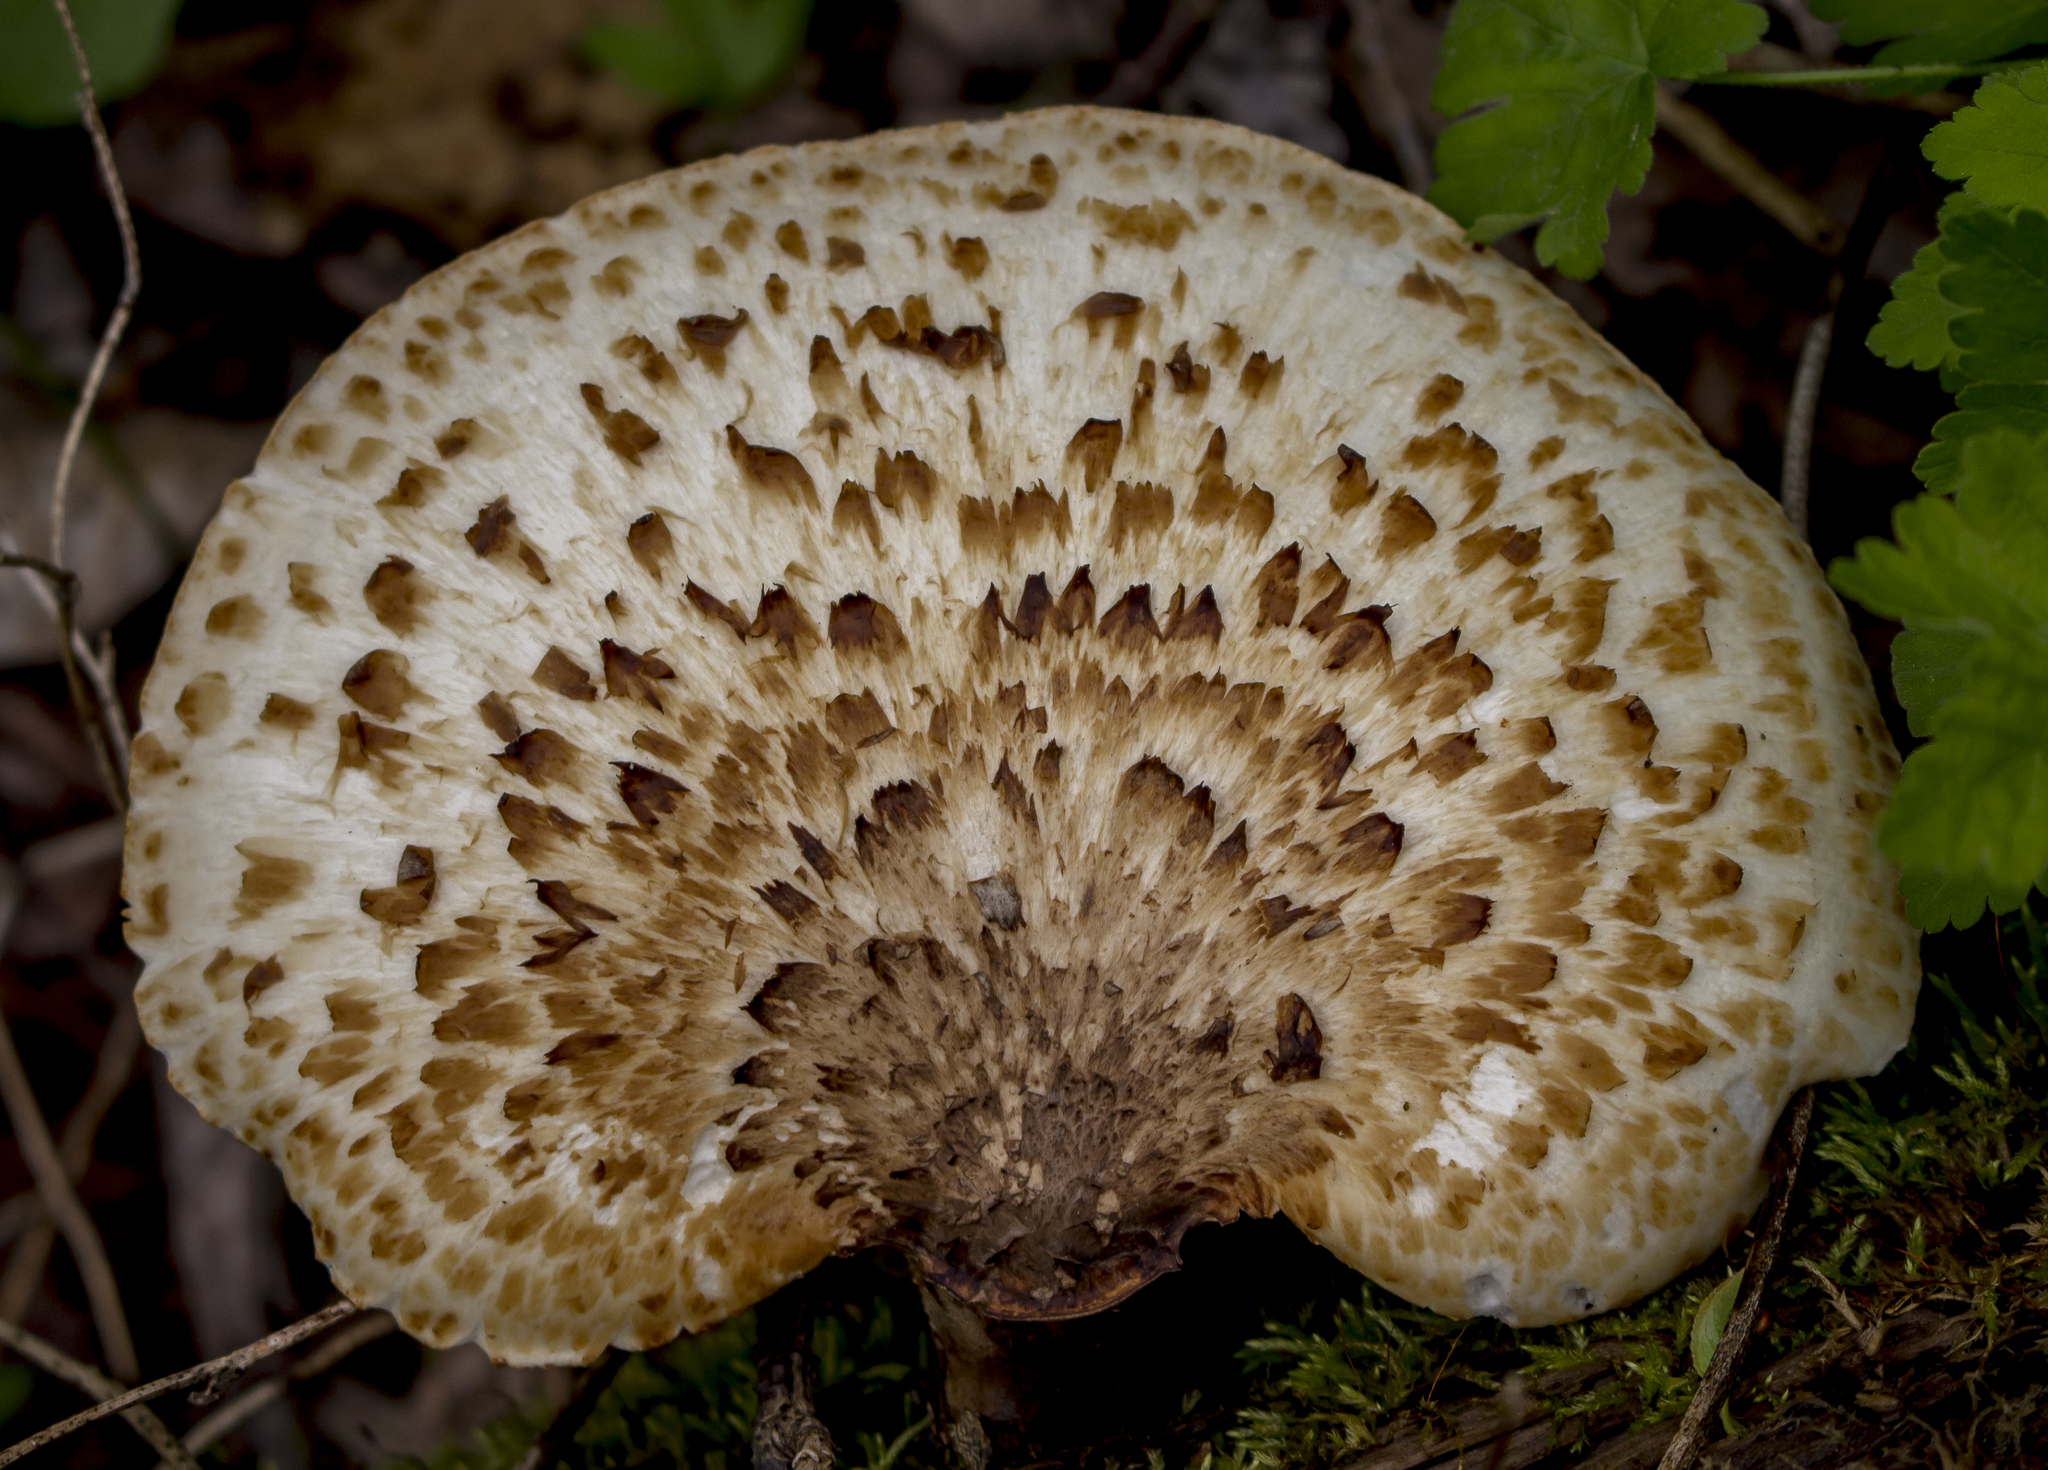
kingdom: Fungi
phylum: Basidiomycota
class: Agaricomycetes
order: Polyporales
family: Polyporaceae
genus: Cerioporus
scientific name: Cerioporus squamosus
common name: Dryad's saddle
